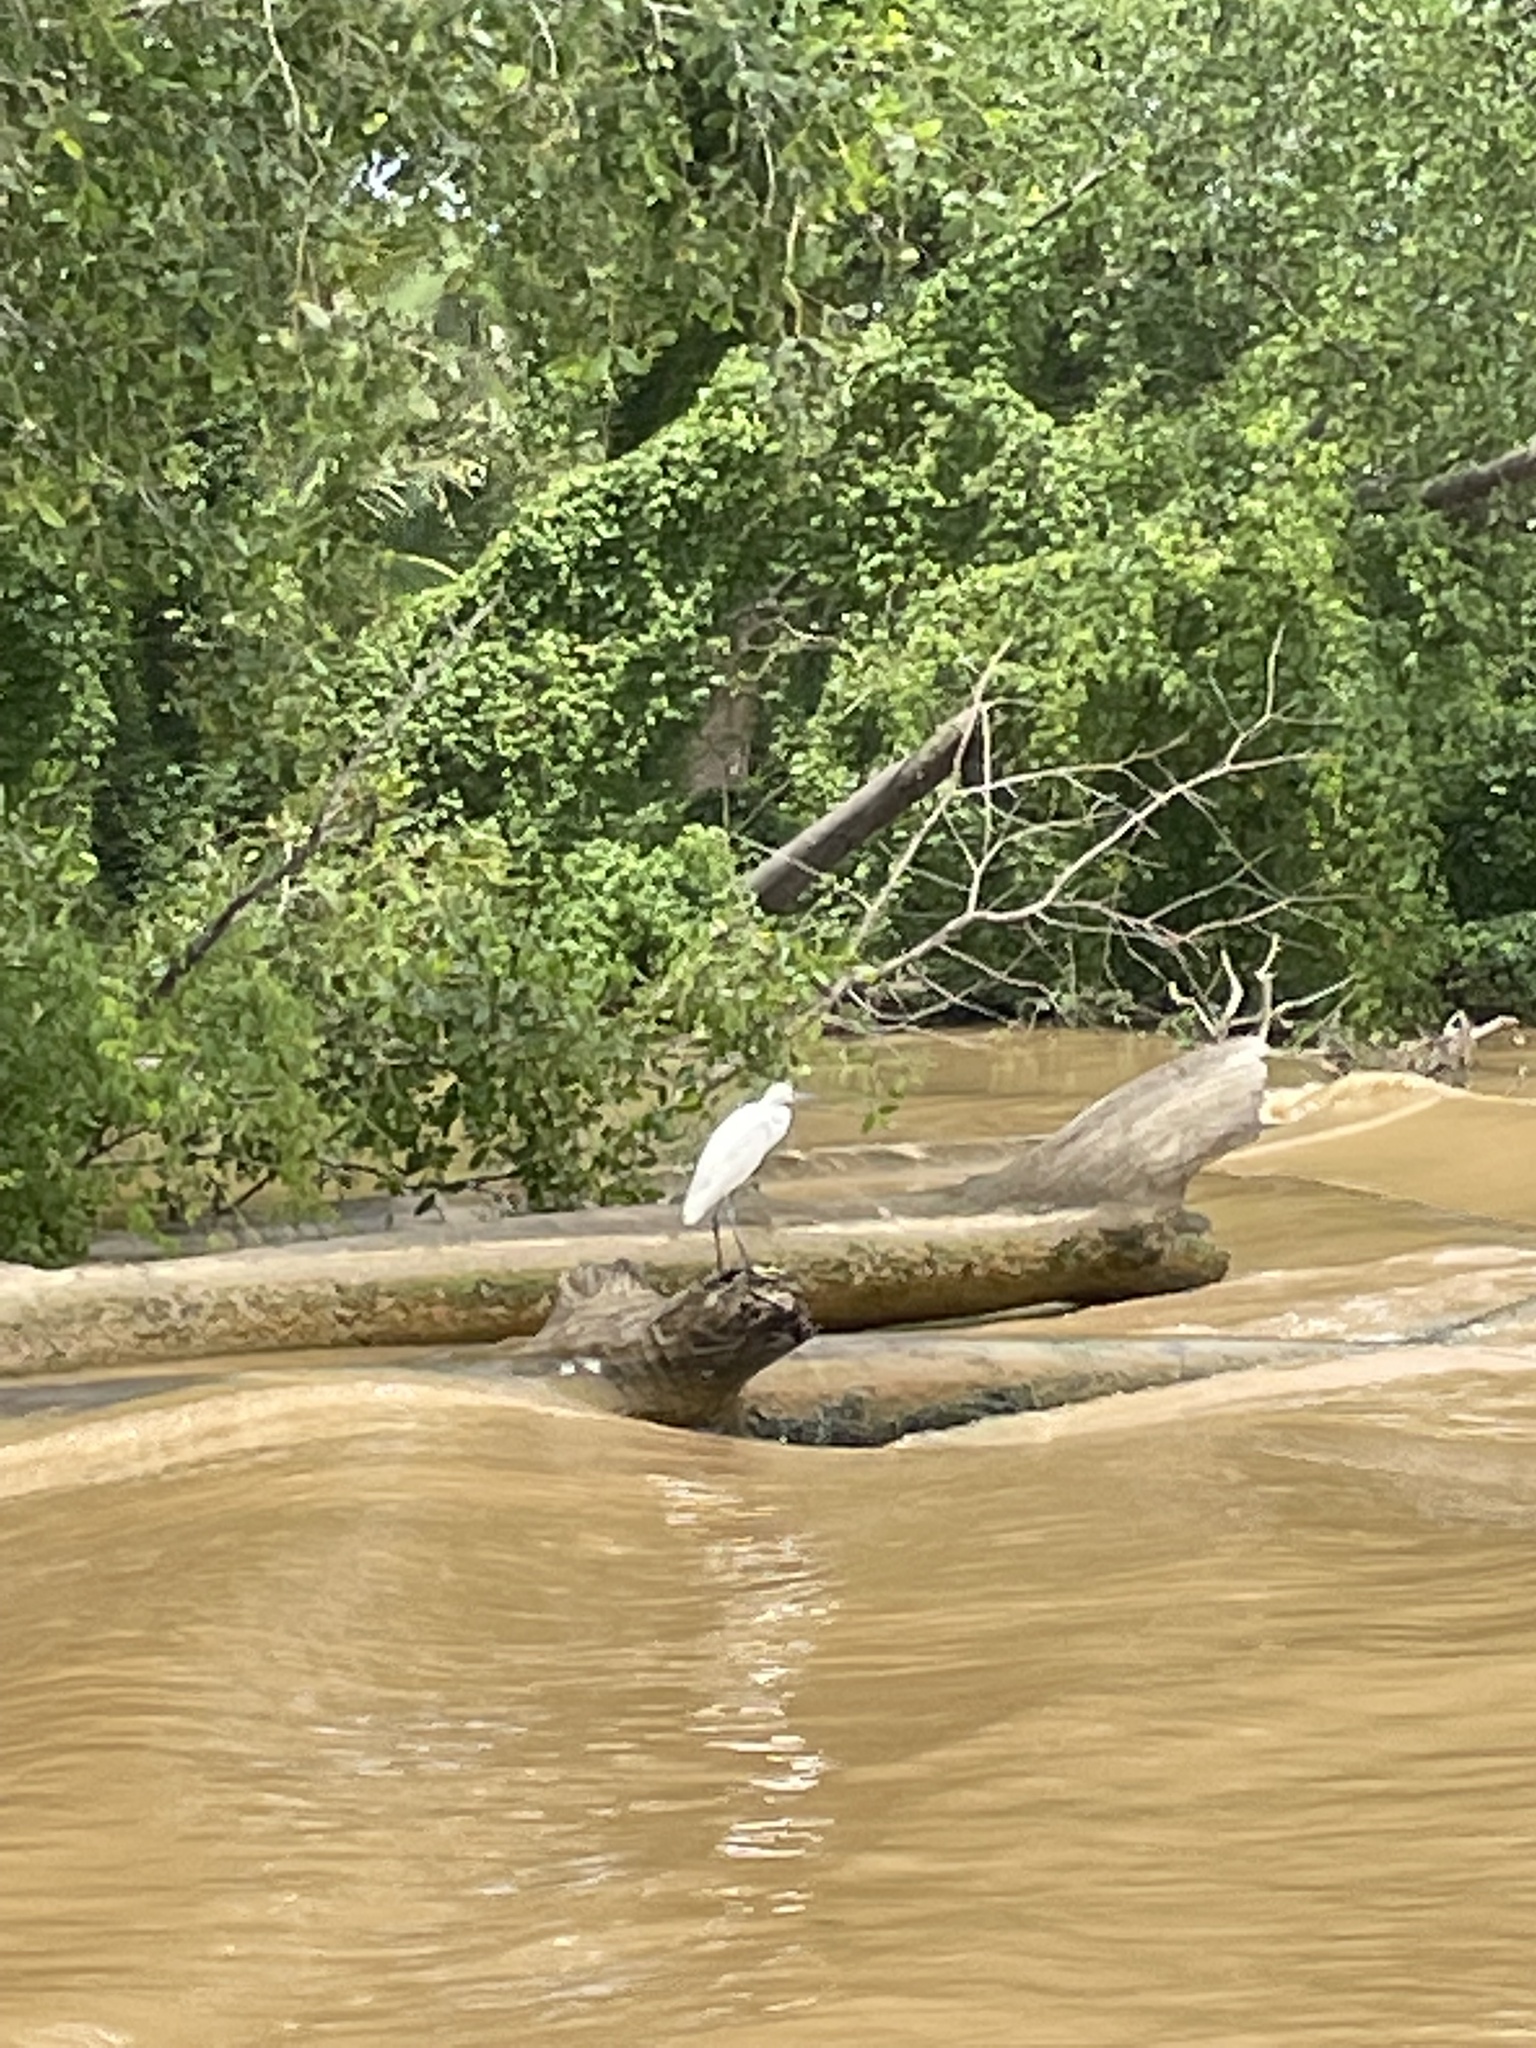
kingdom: Animalia
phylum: Chordata
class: Aves
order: Pelecaniformes
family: Ardeidae
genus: Egretta
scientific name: Egretta garzetta
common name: Little egret
